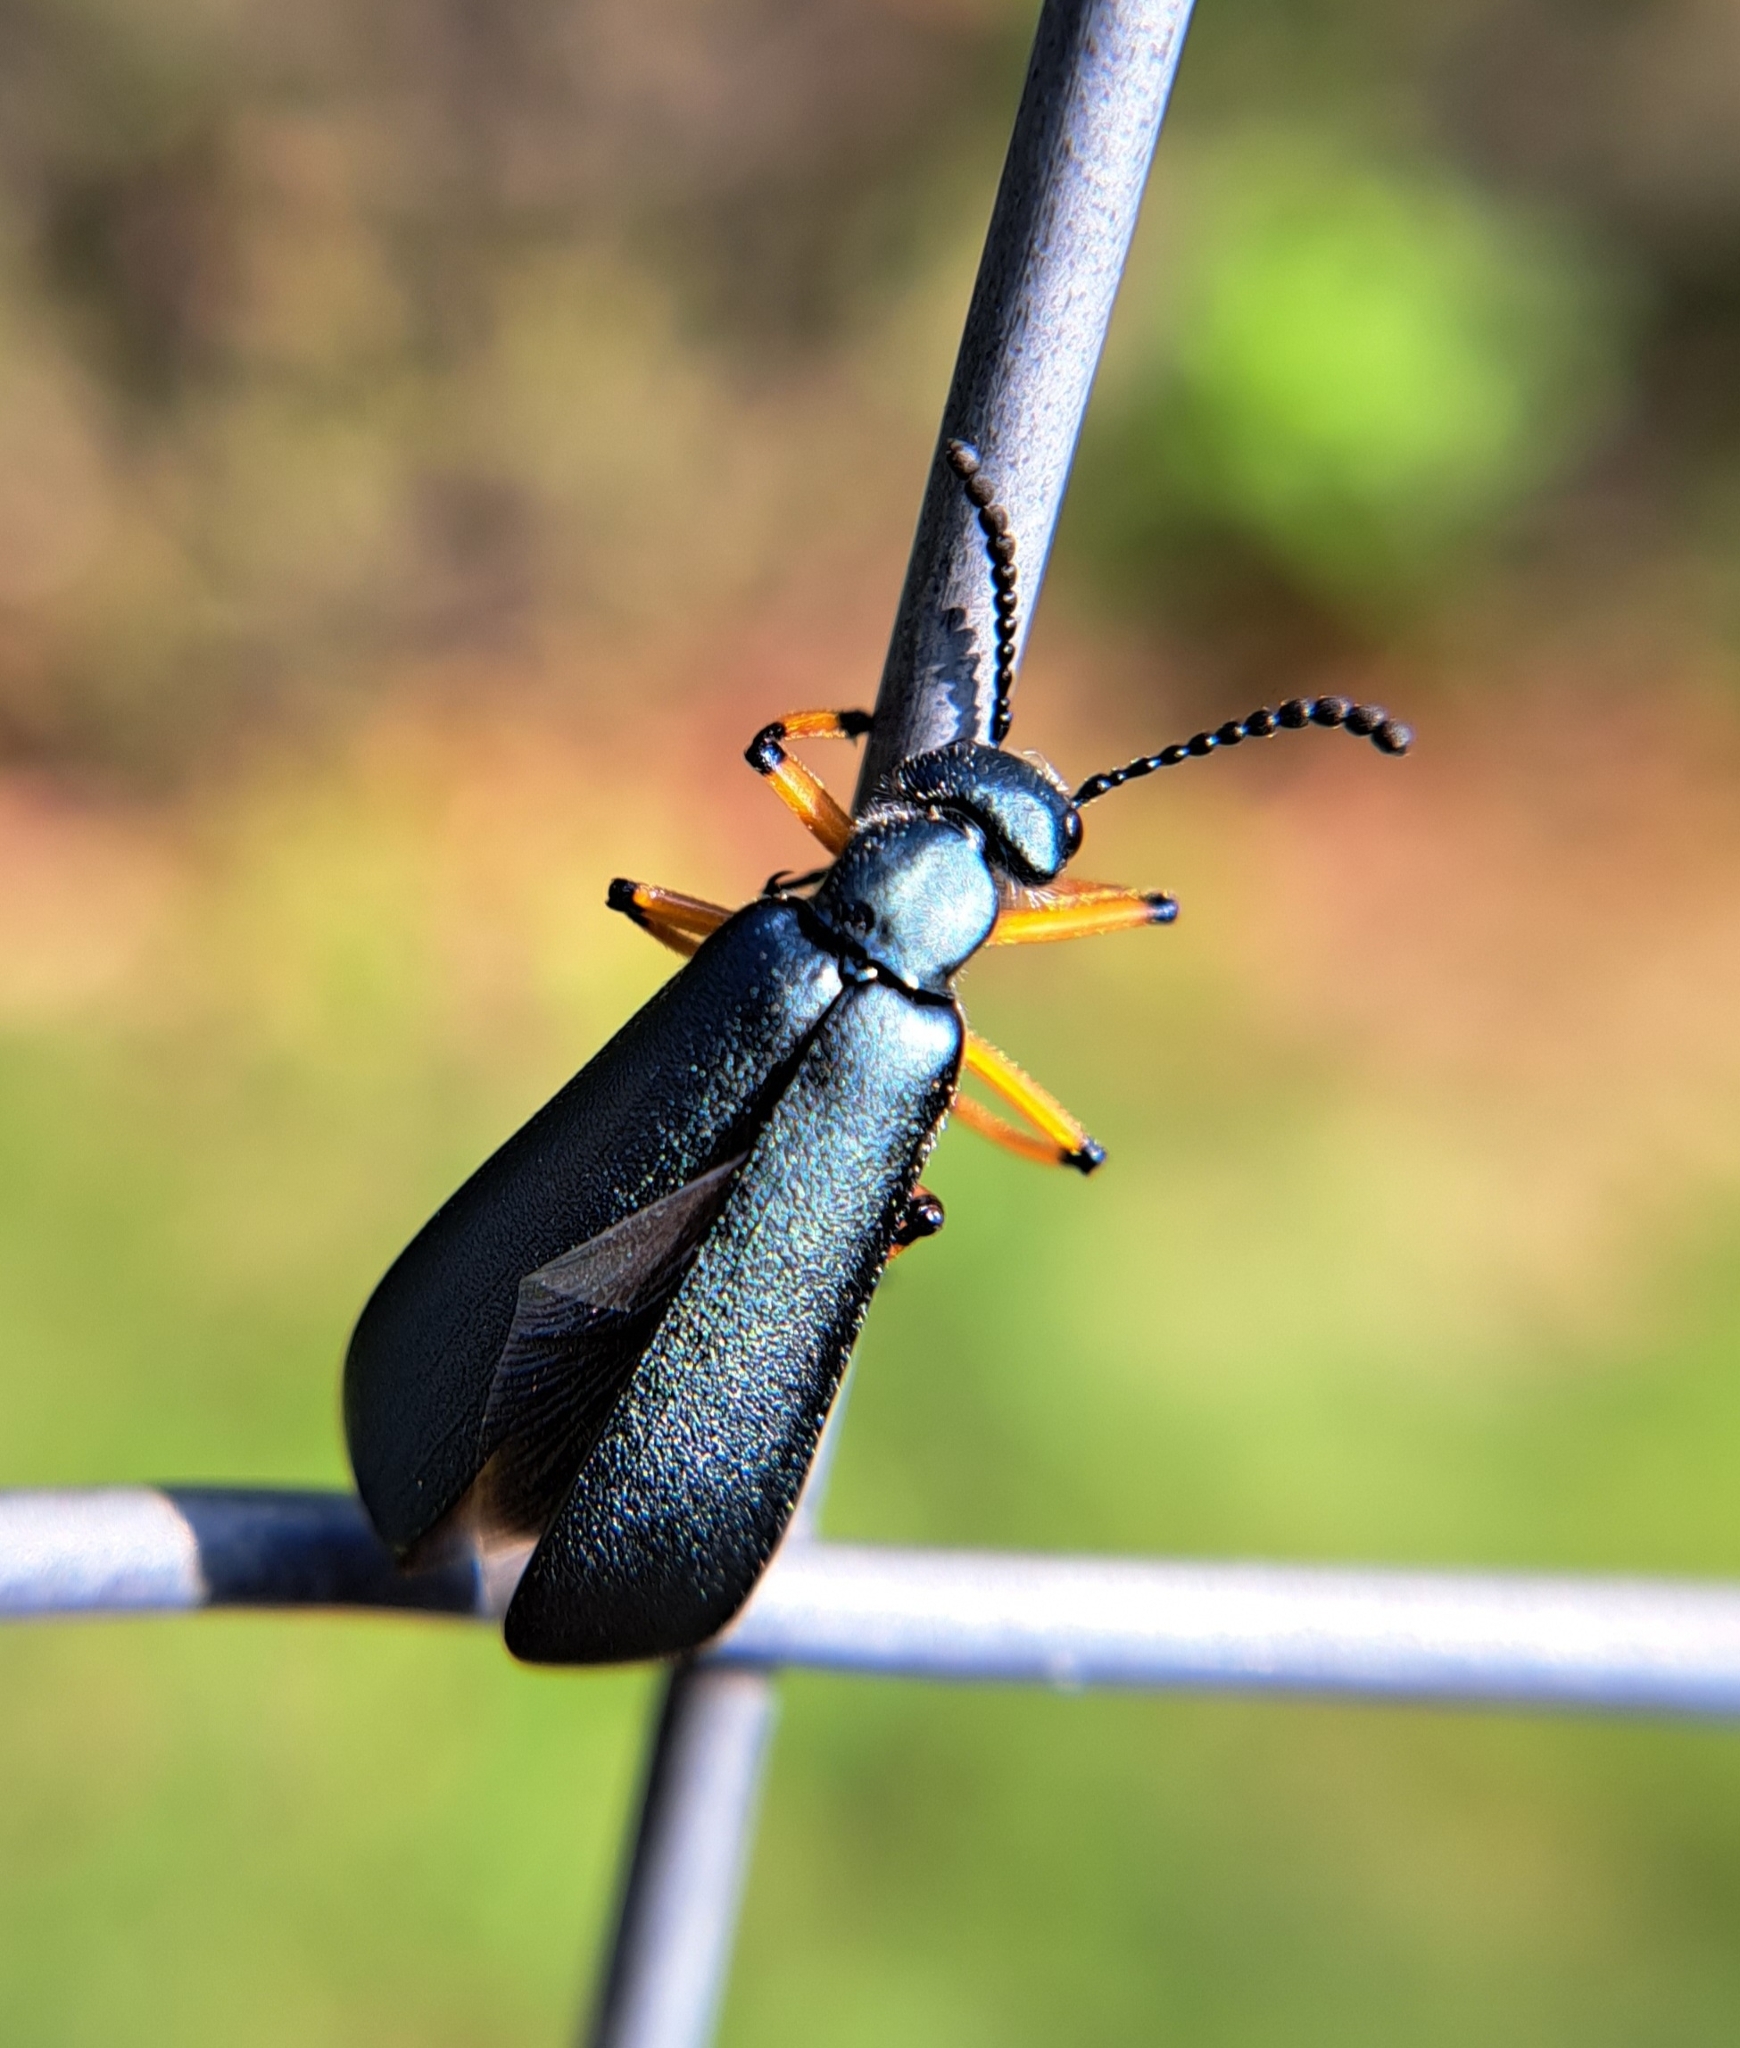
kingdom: Animalia
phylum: Arthropoda
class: Insecta
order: Coleoptera
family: Meloidae
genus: Lytta
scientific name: Lytta sayi
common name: Say's blister beetle
